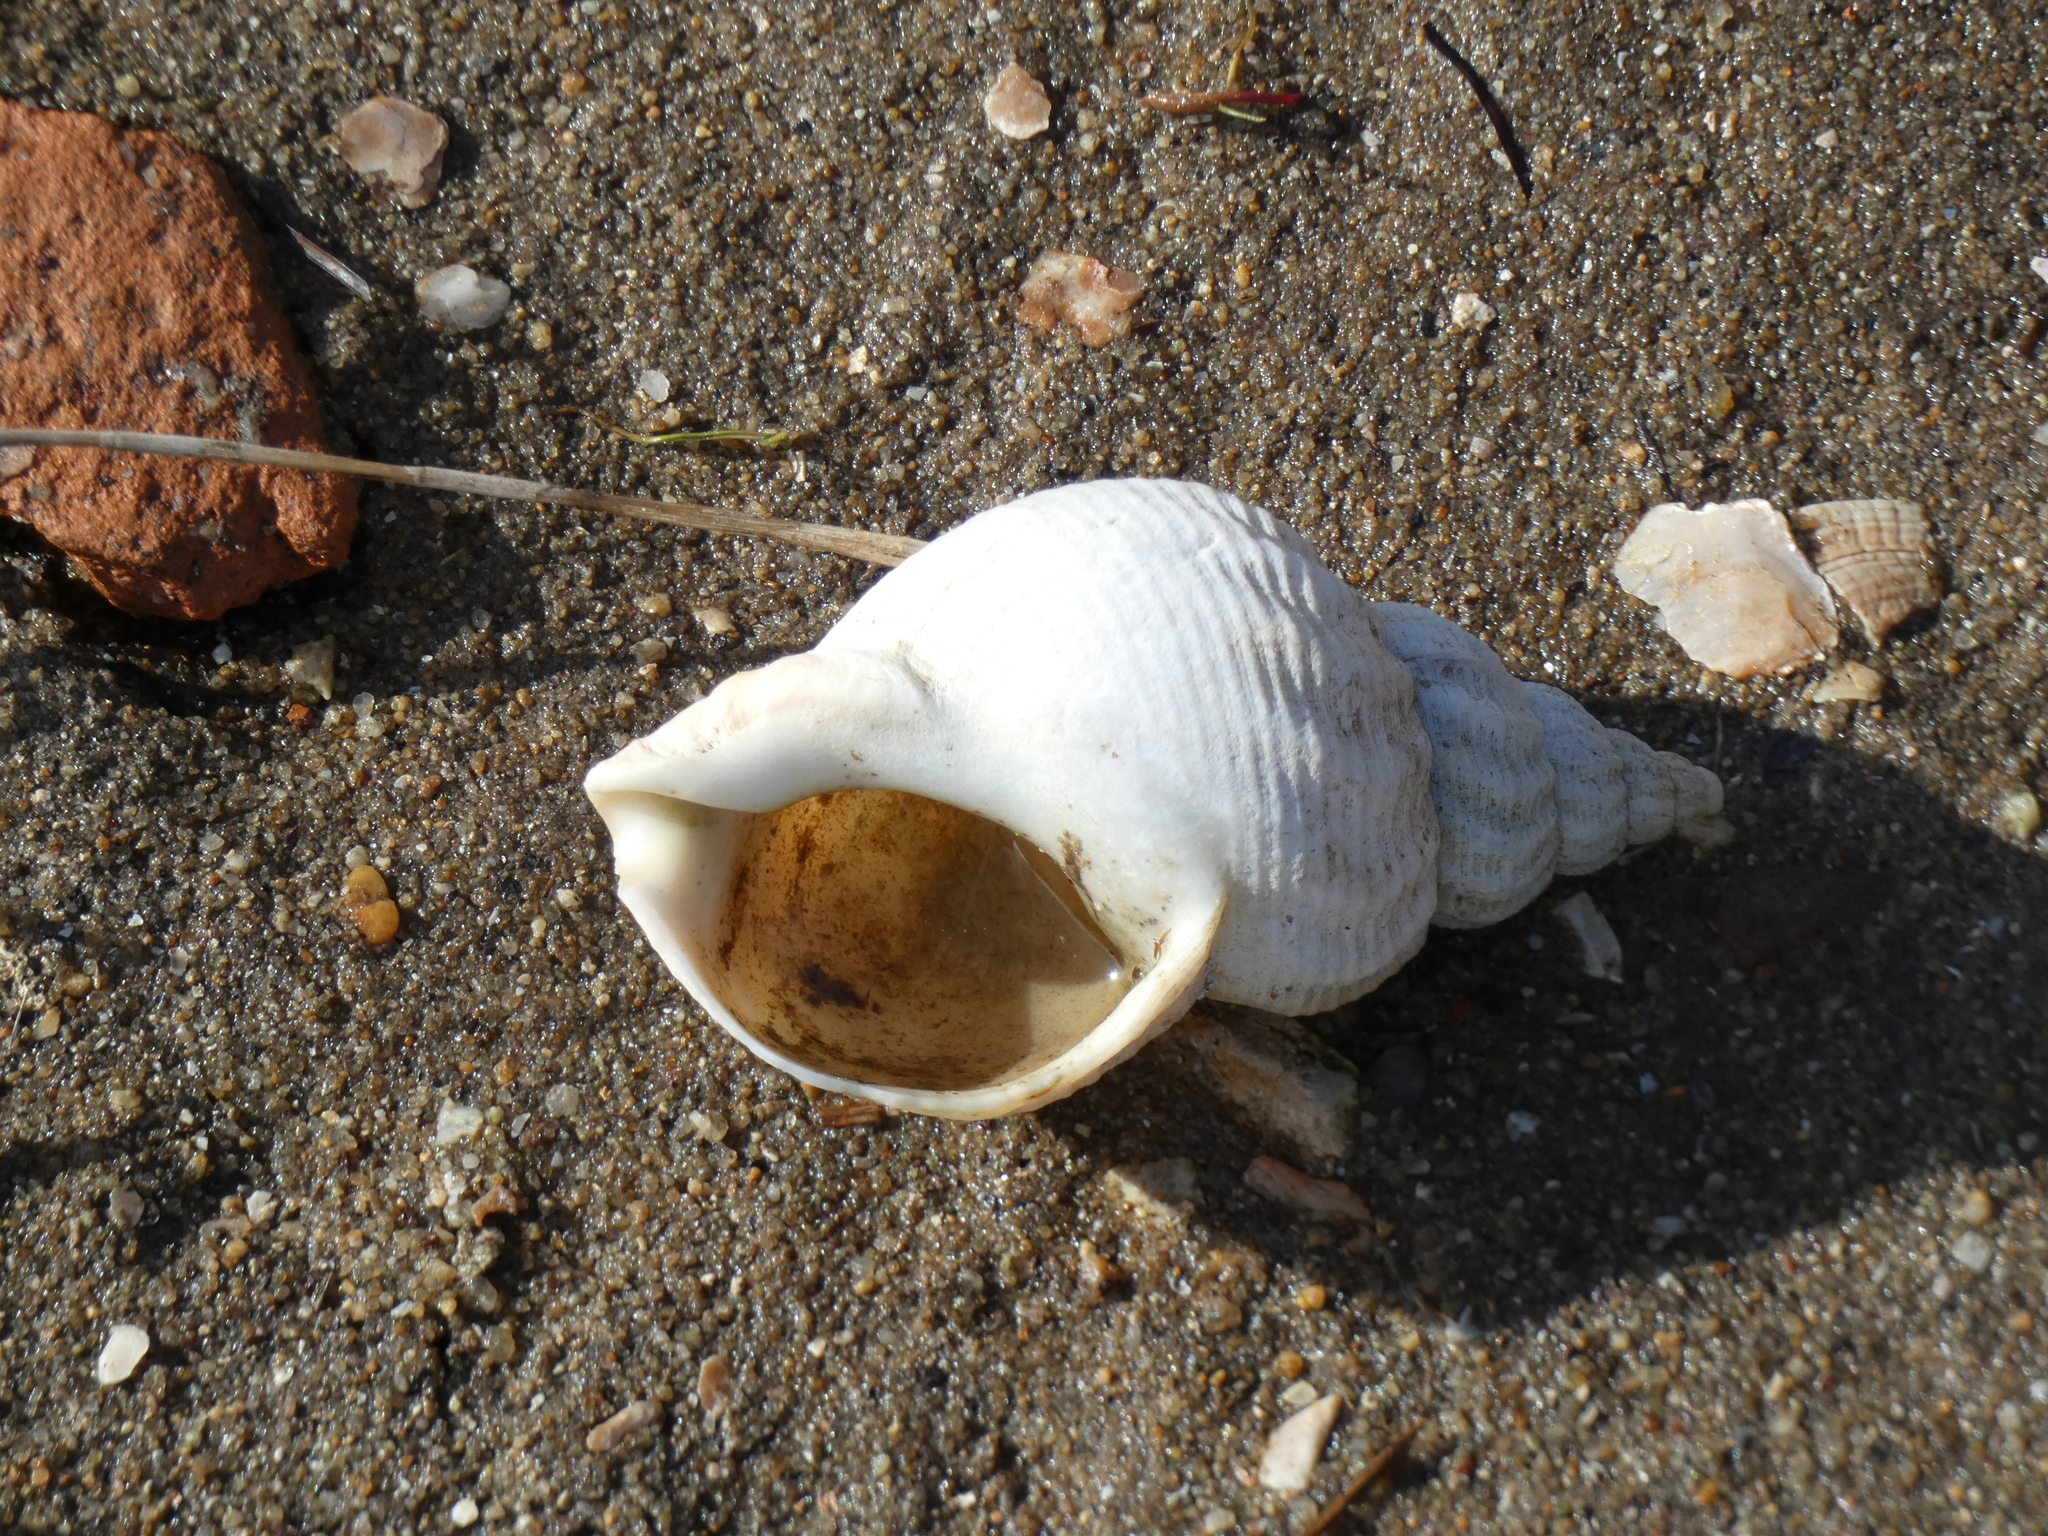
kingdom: Animalia
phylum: Mollusca
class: Gastropoda
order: Neogastropoda
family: Buccinidae
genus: Buccinum
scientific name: Buccinum undatum
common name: Common whelk
